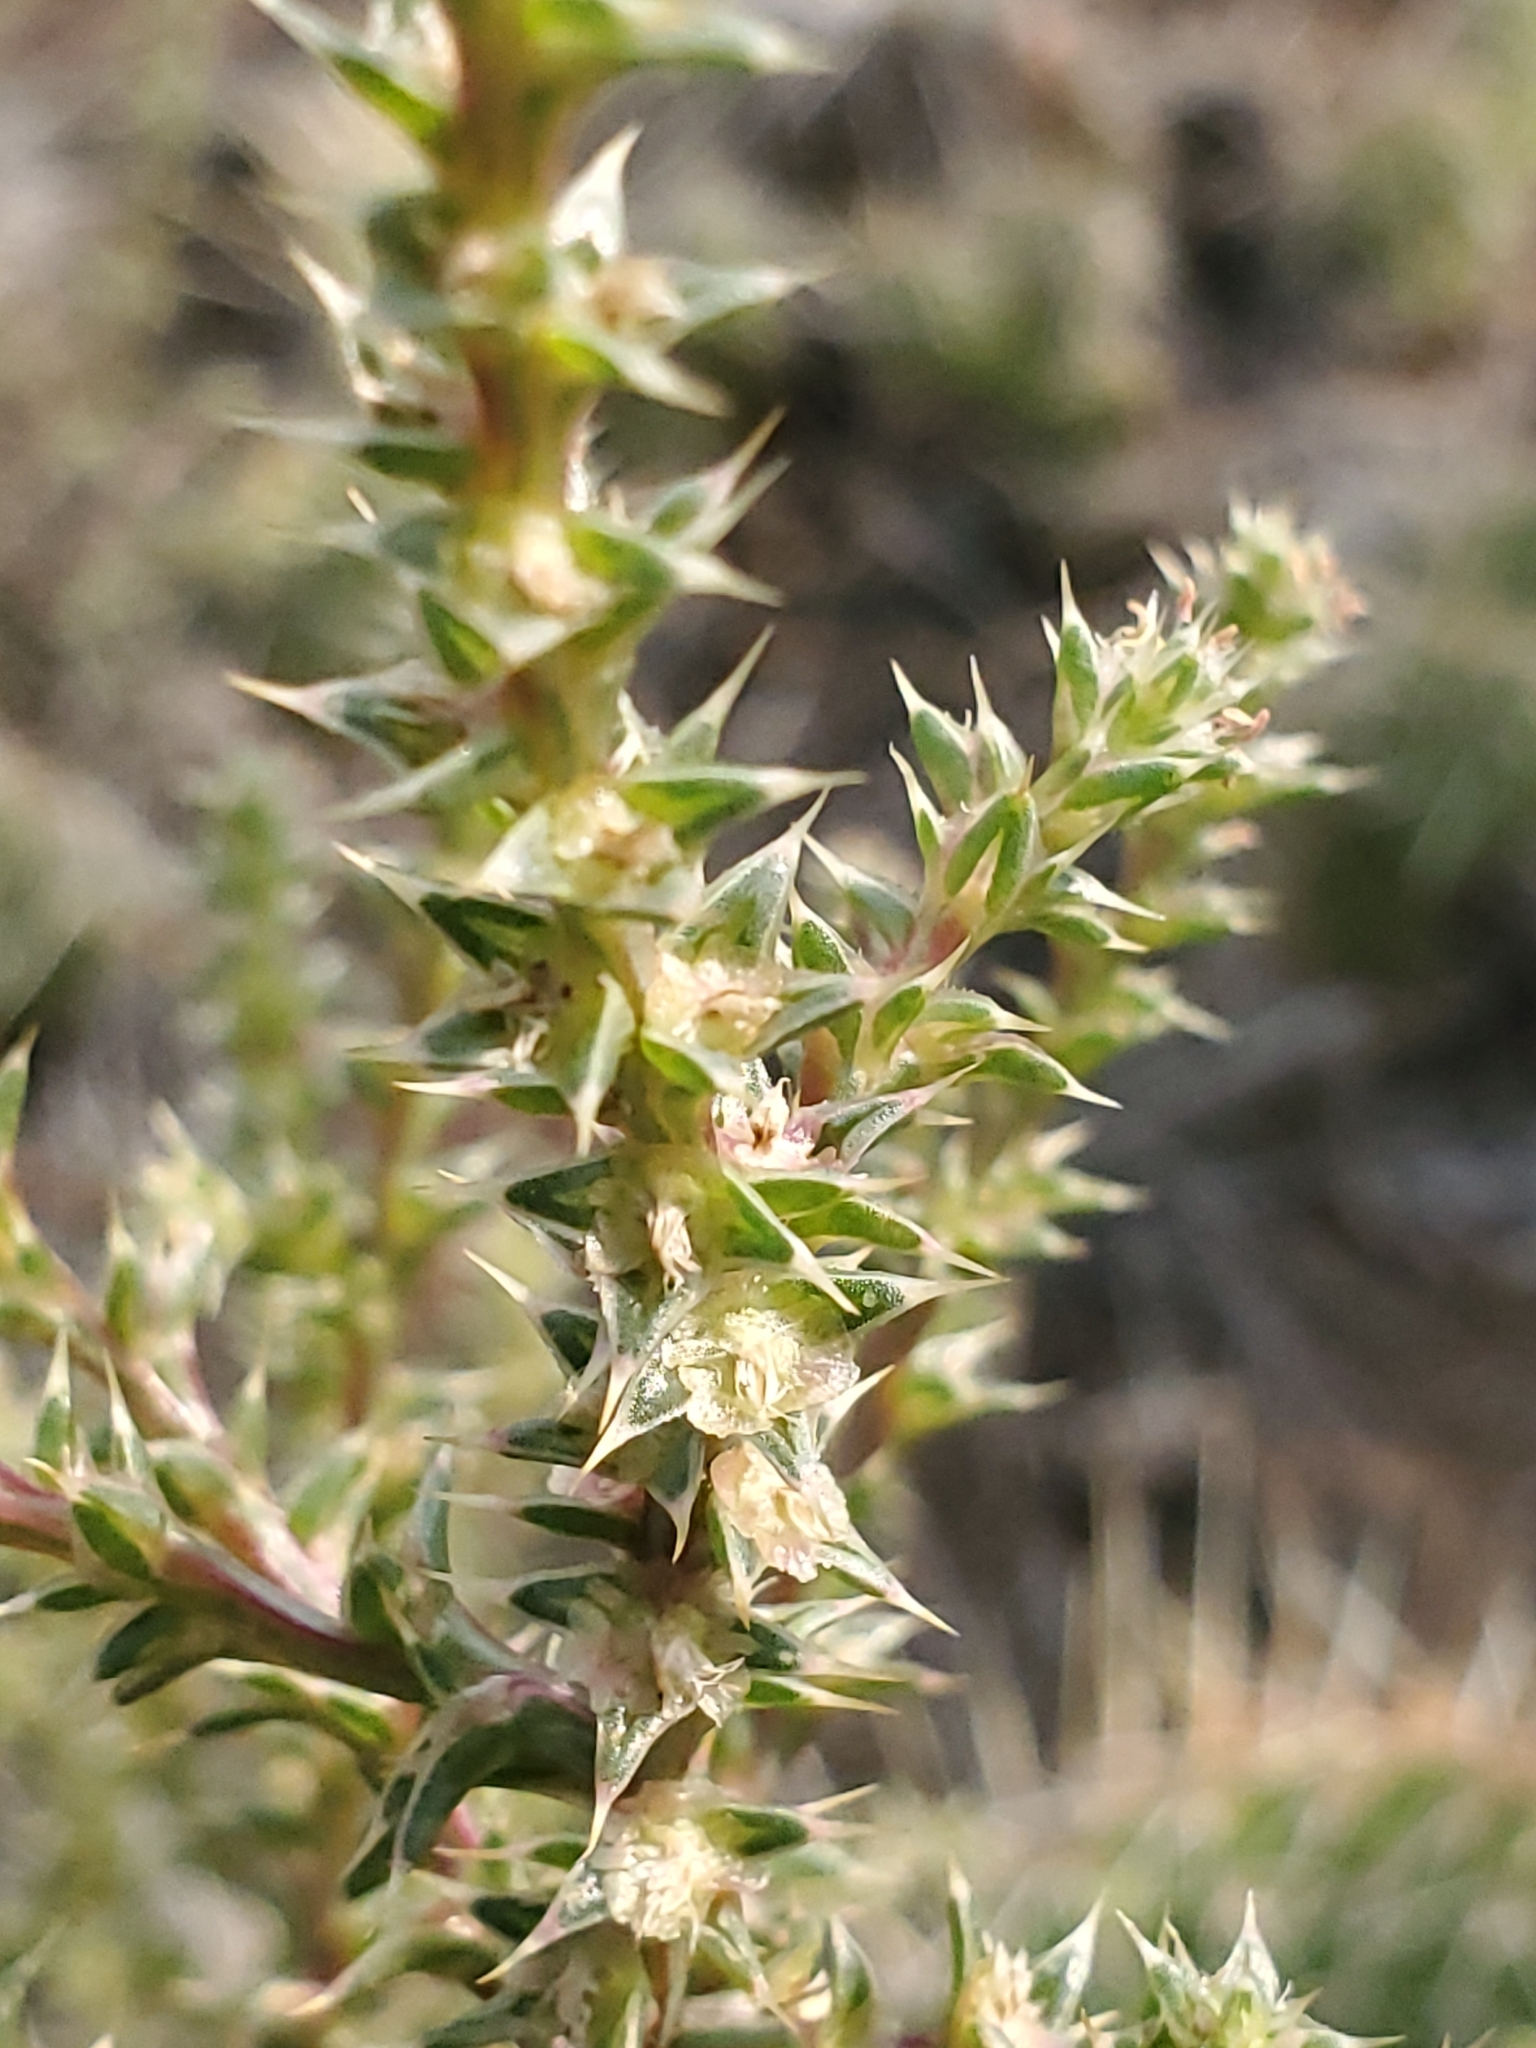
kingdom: Plantae
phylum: Tracheophyta
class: Magnoliopsida
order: Caryophyllales
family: Amaranthaceae
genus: Salsola
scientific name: Salsola tragus
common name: Prickly russian thistle
